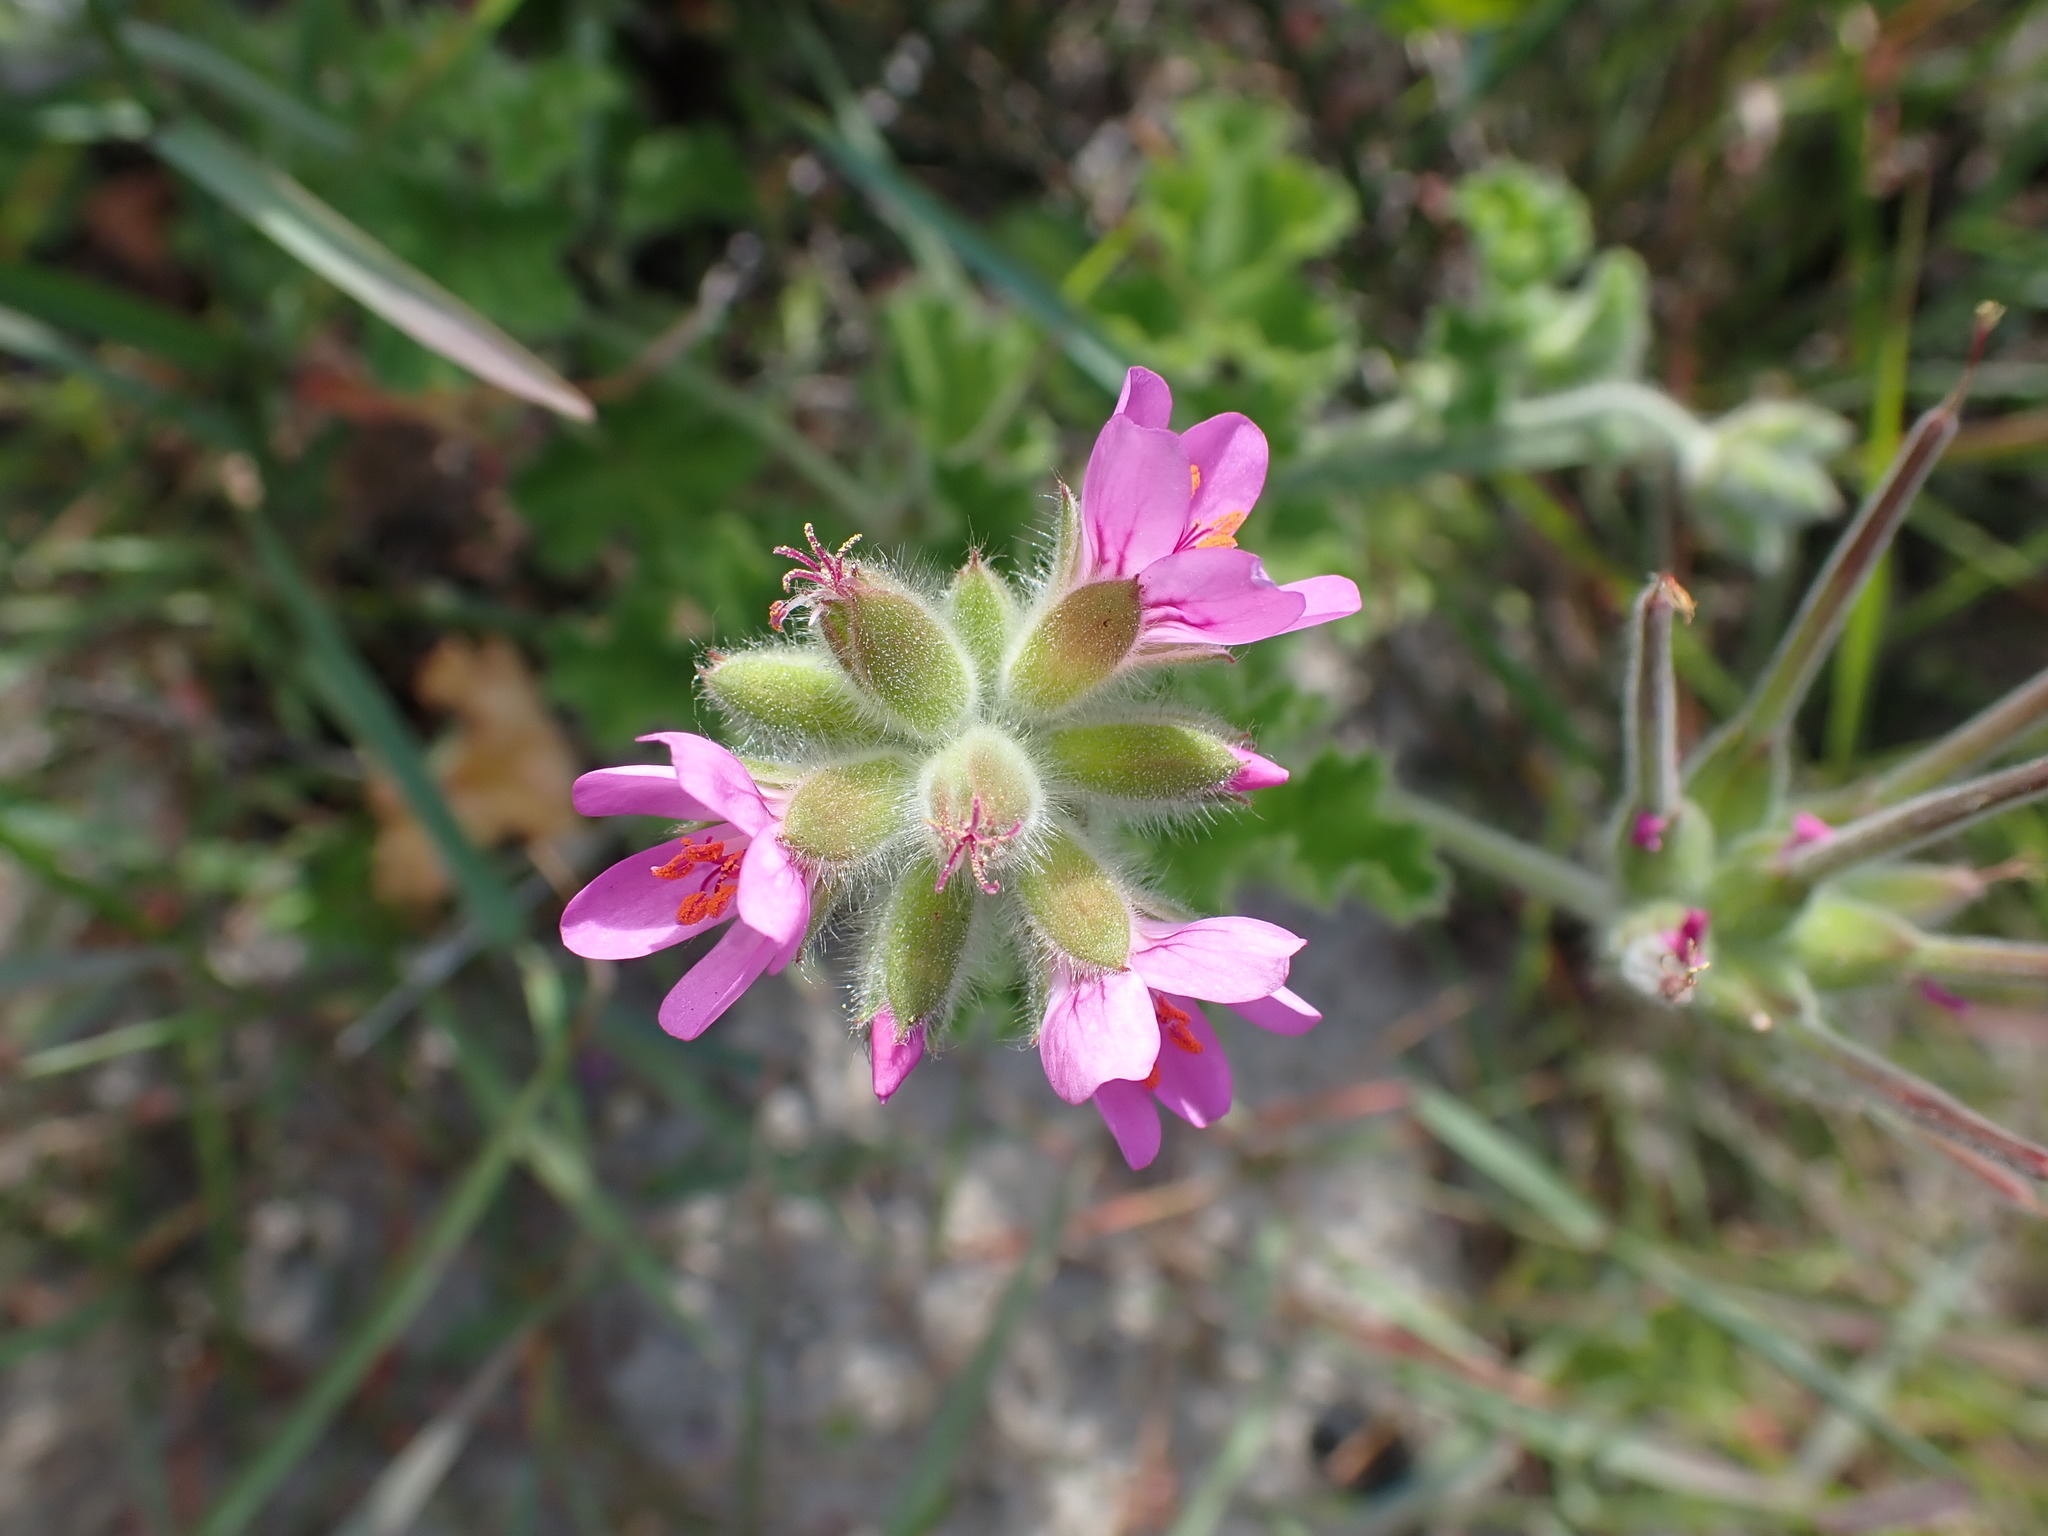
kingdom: Plantae
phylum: Tracheophyta
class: Magnoliopsida
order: Geraniales
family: Geraniaceae
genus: Pelargonium
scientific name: Pelargonium capitatum
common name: Rose scented geranium
